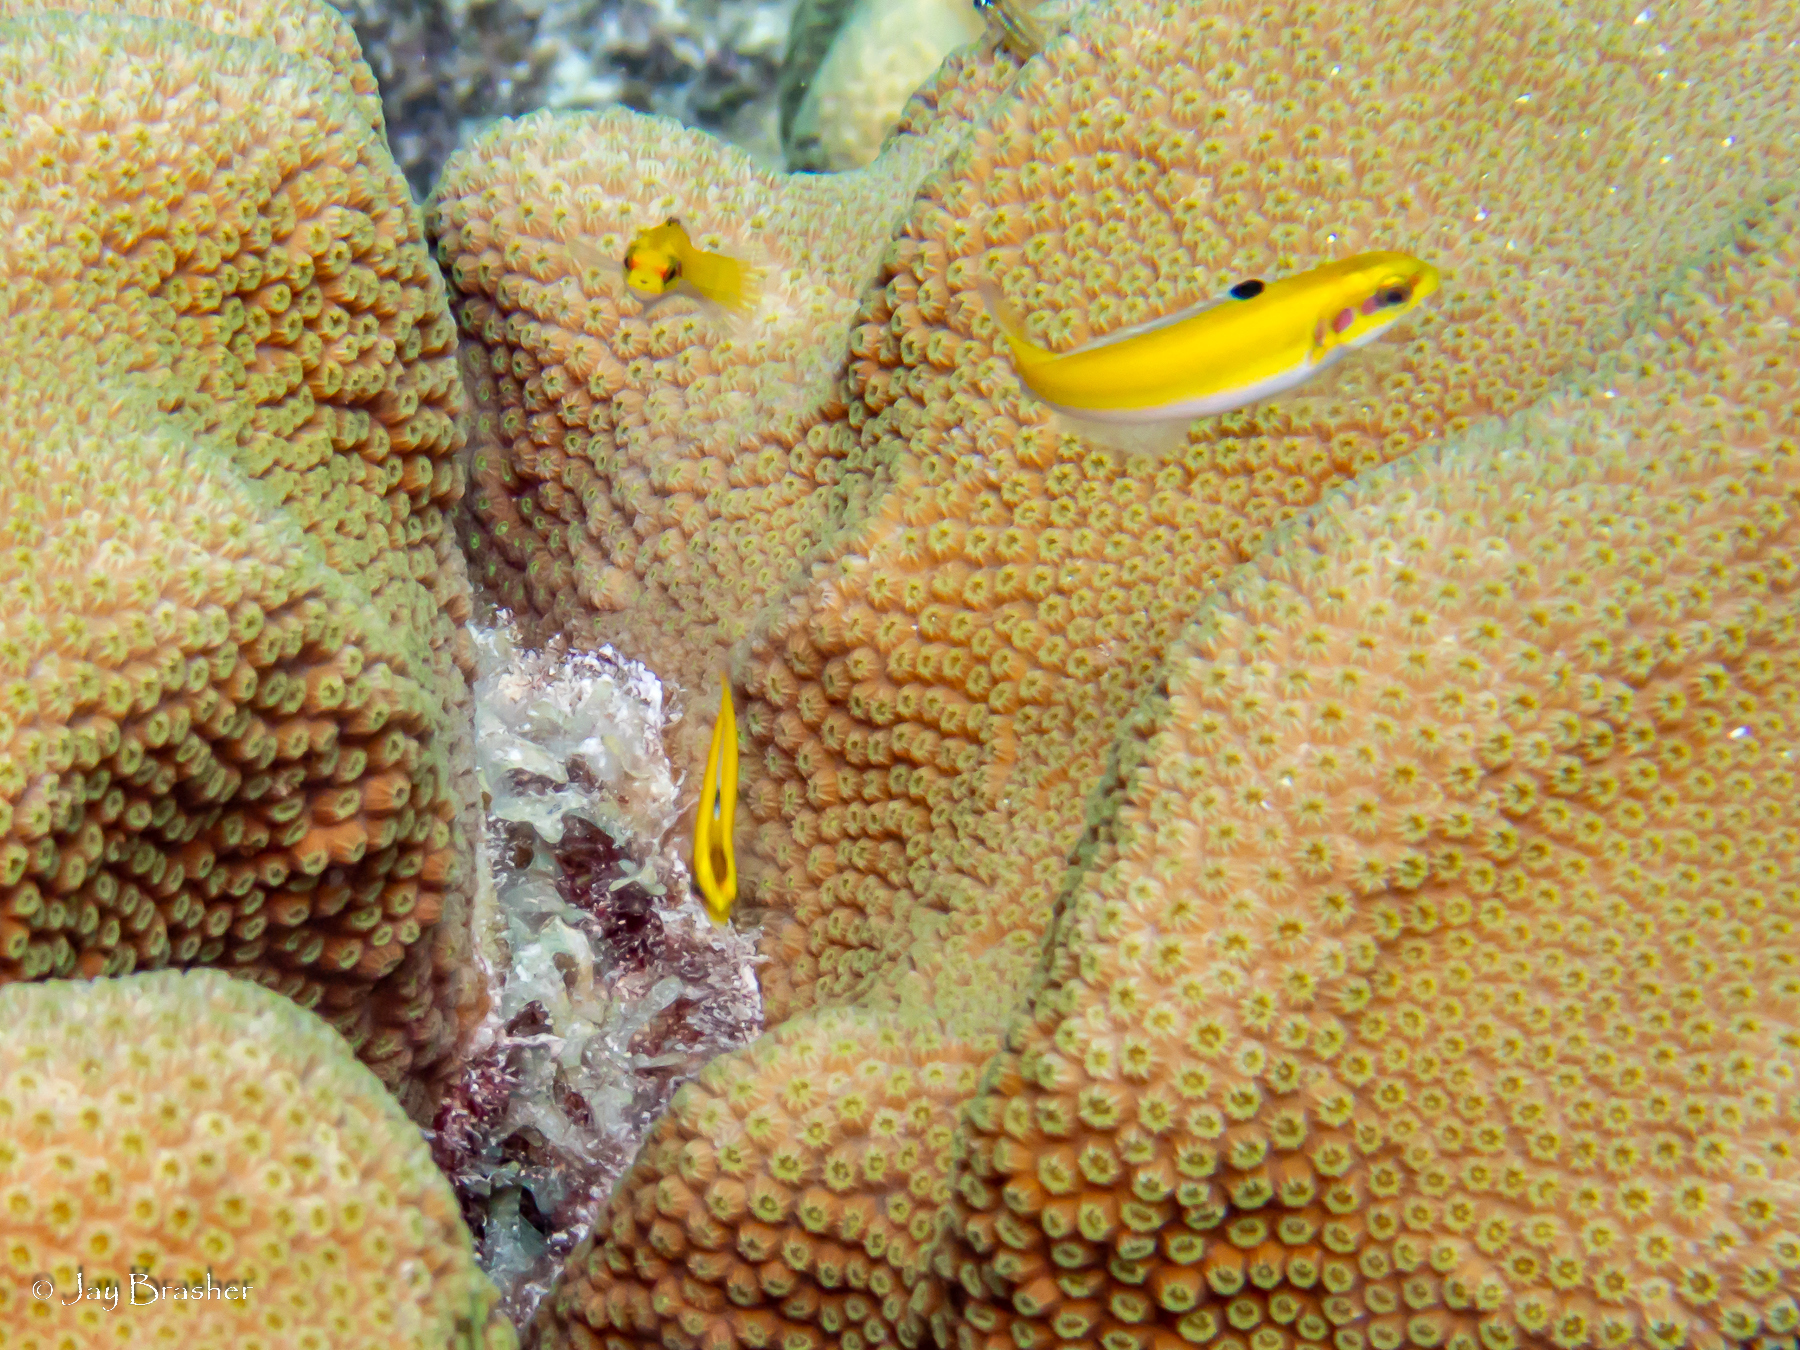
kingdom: Animalia
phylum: Chordata
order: Perciformes
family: Labridae
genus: Thalassoma
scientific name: Thalassoma bifasciatum
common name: Bluehead wrasse
